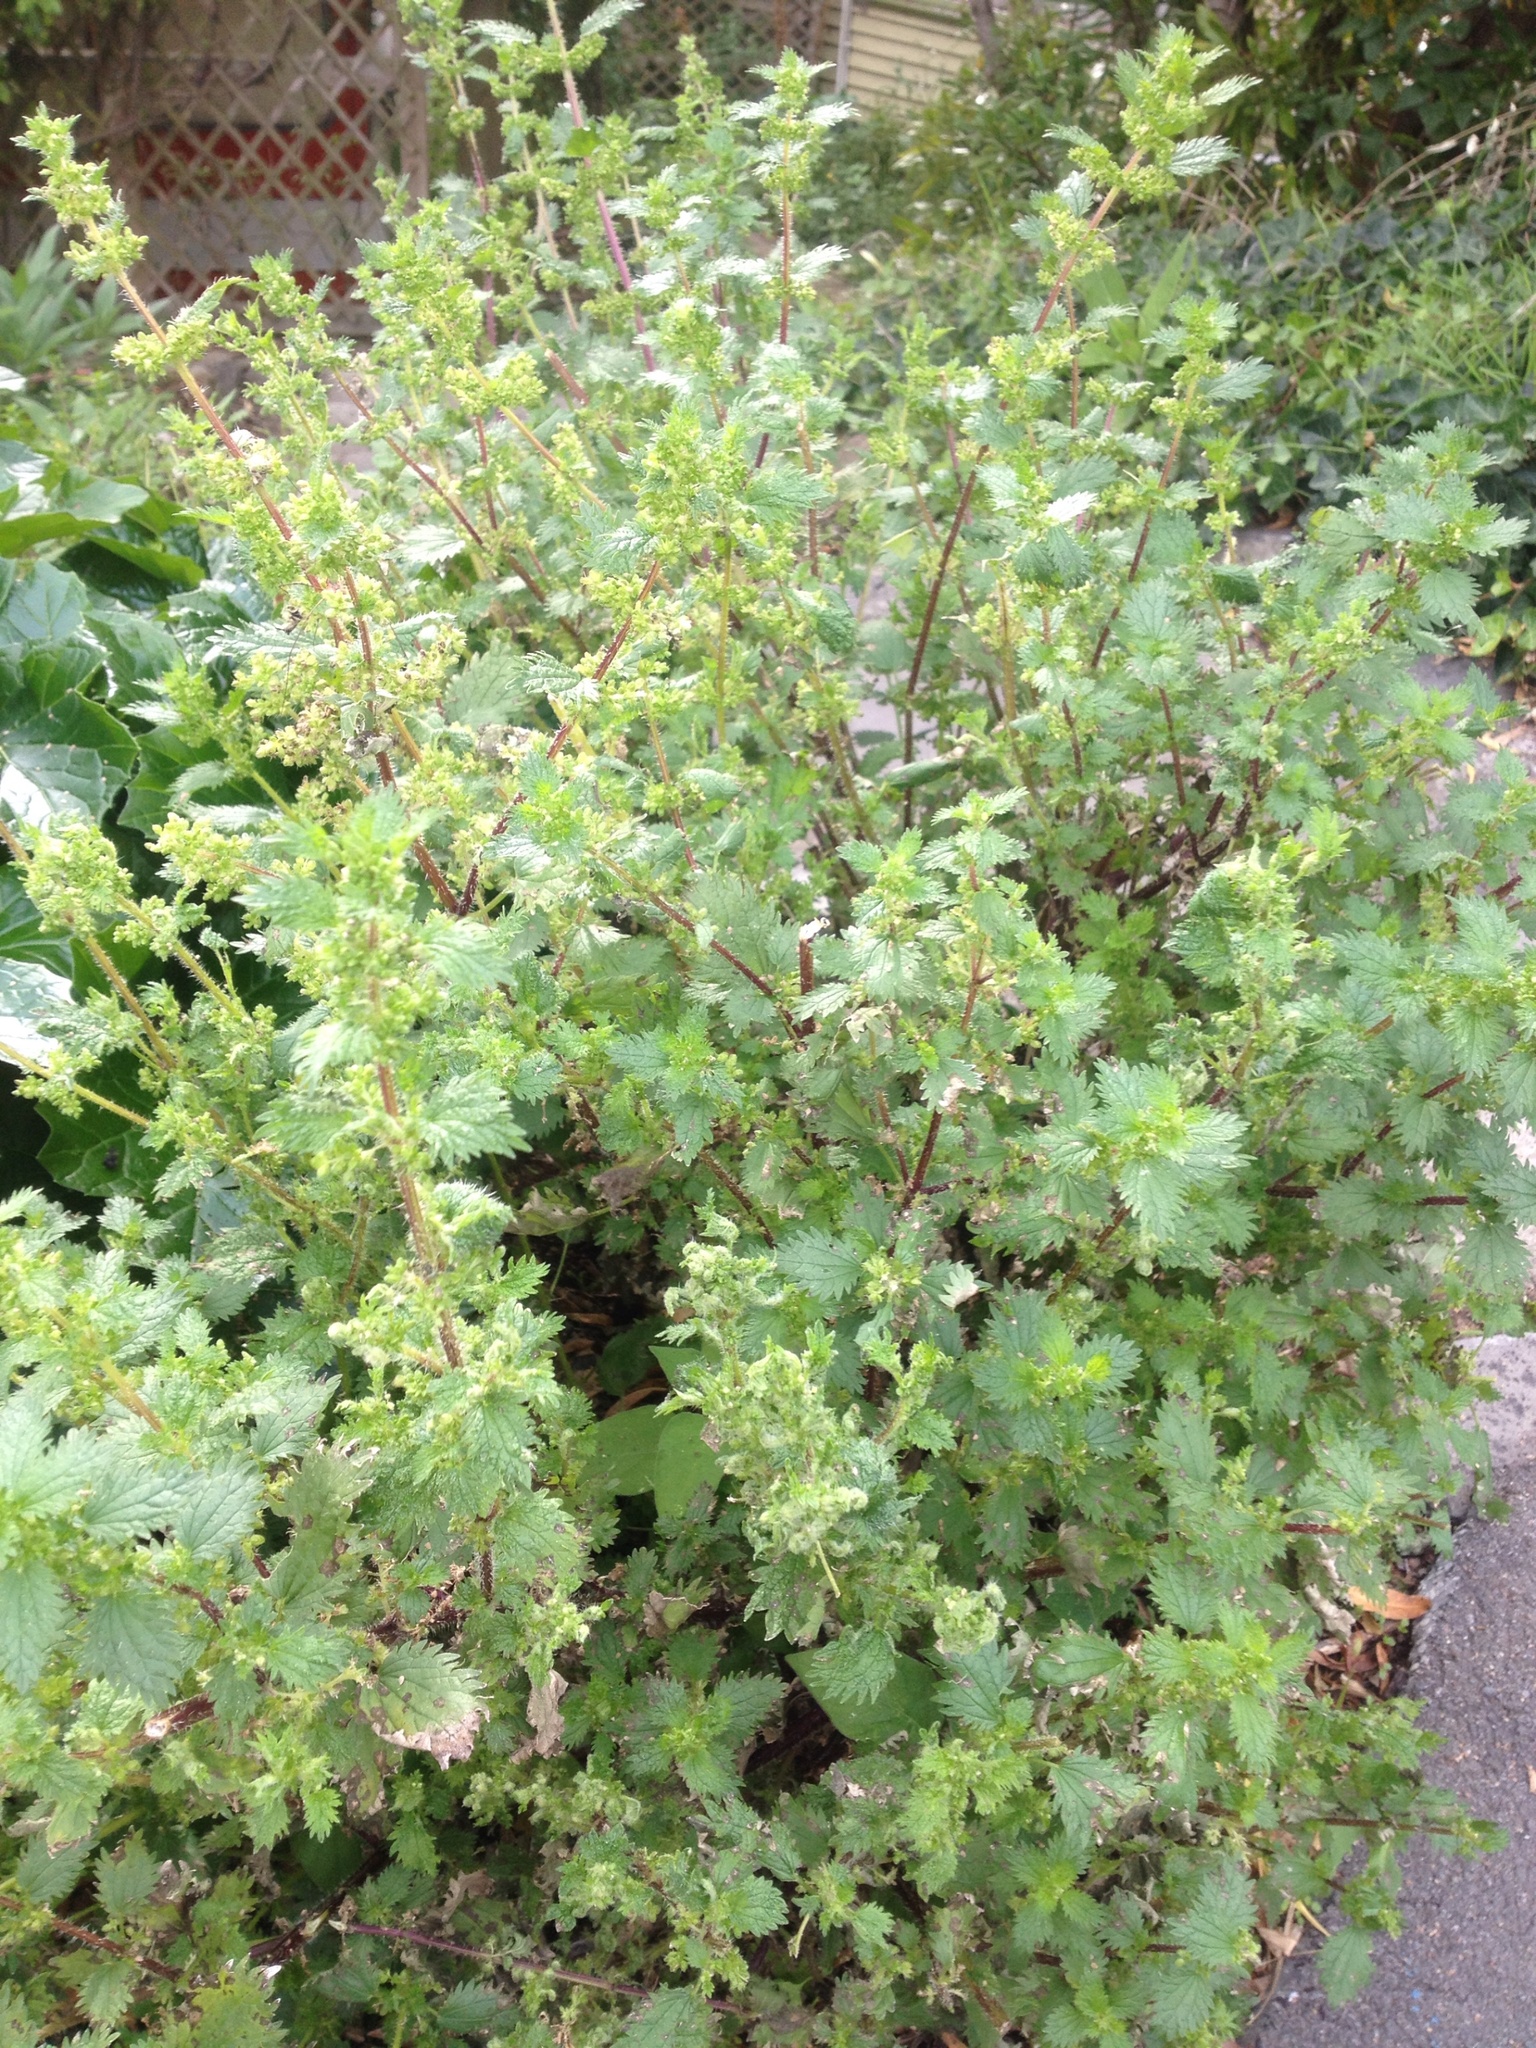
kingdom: Plantae
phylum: Tracheophyta
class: Magnoliopsida
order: Rosales
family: Urticaceae
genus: Urtica
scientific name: Urtica urens
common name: Dwarf nettle
